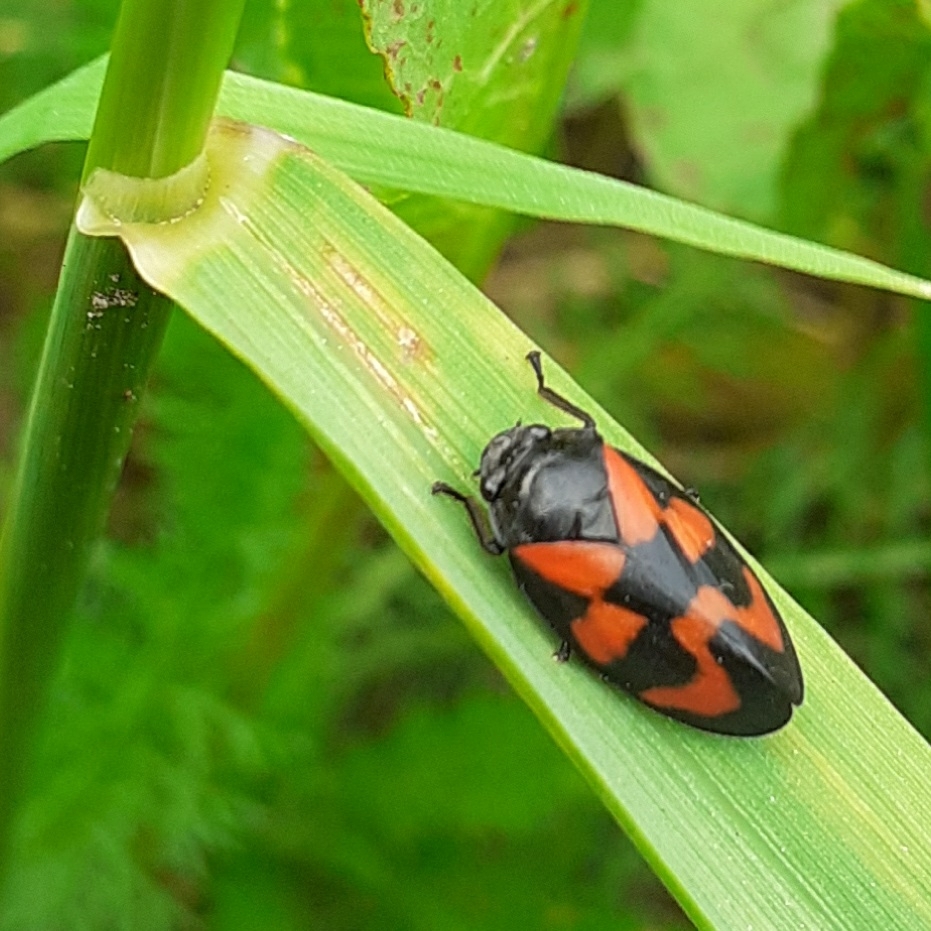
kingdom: Animalia
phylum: Arthropoda
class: Insecta
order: Hemiptera
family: Cercopidae
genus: Cercopis
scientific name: Cercopis vulnerata
